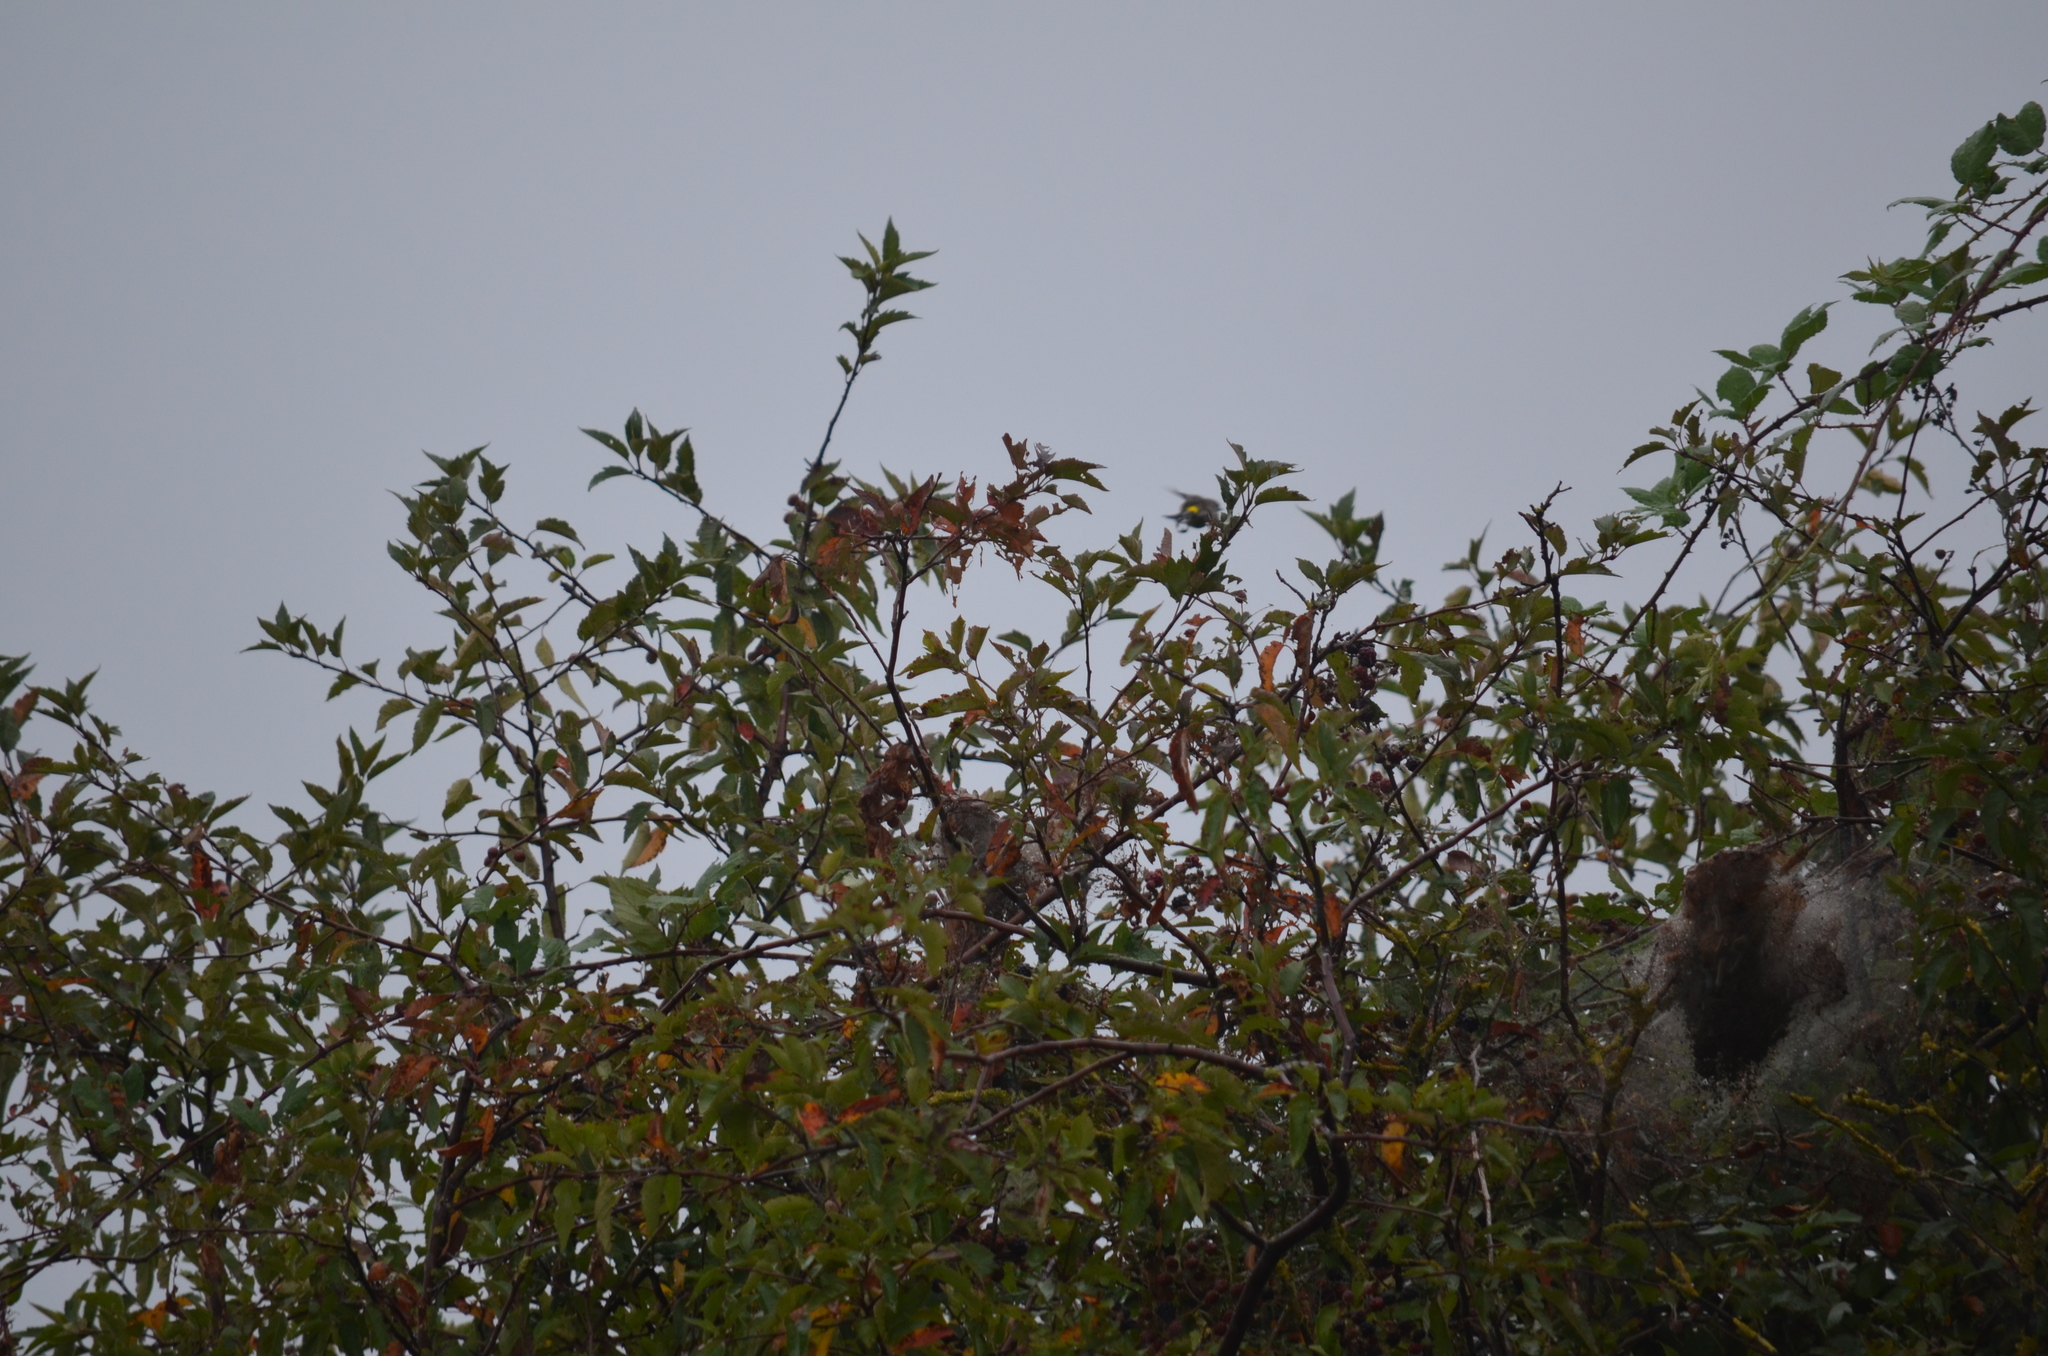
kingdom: Animalia
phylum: Arthropoda
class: Insecta
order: Lepidoptera
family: Erebidae
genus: Hyphantria
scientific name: Hyphantria cunea
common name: American white moth
